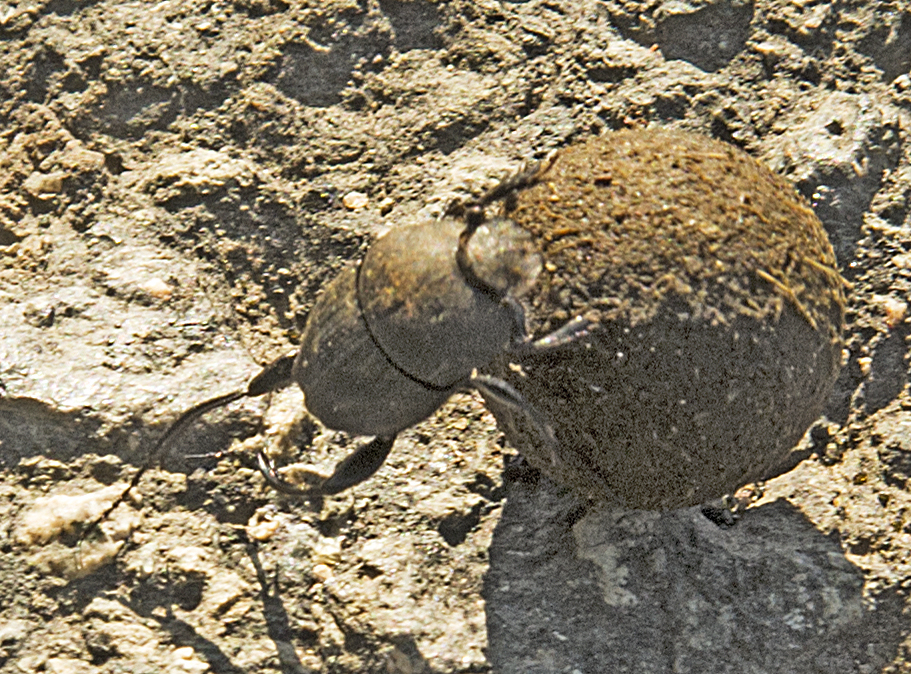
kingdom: Animalia
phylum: Arthropoda
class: Insecta
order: Coleoptera
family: Scarabaeidae
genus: Sisyphus
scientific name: Sisyphus schaefferi
